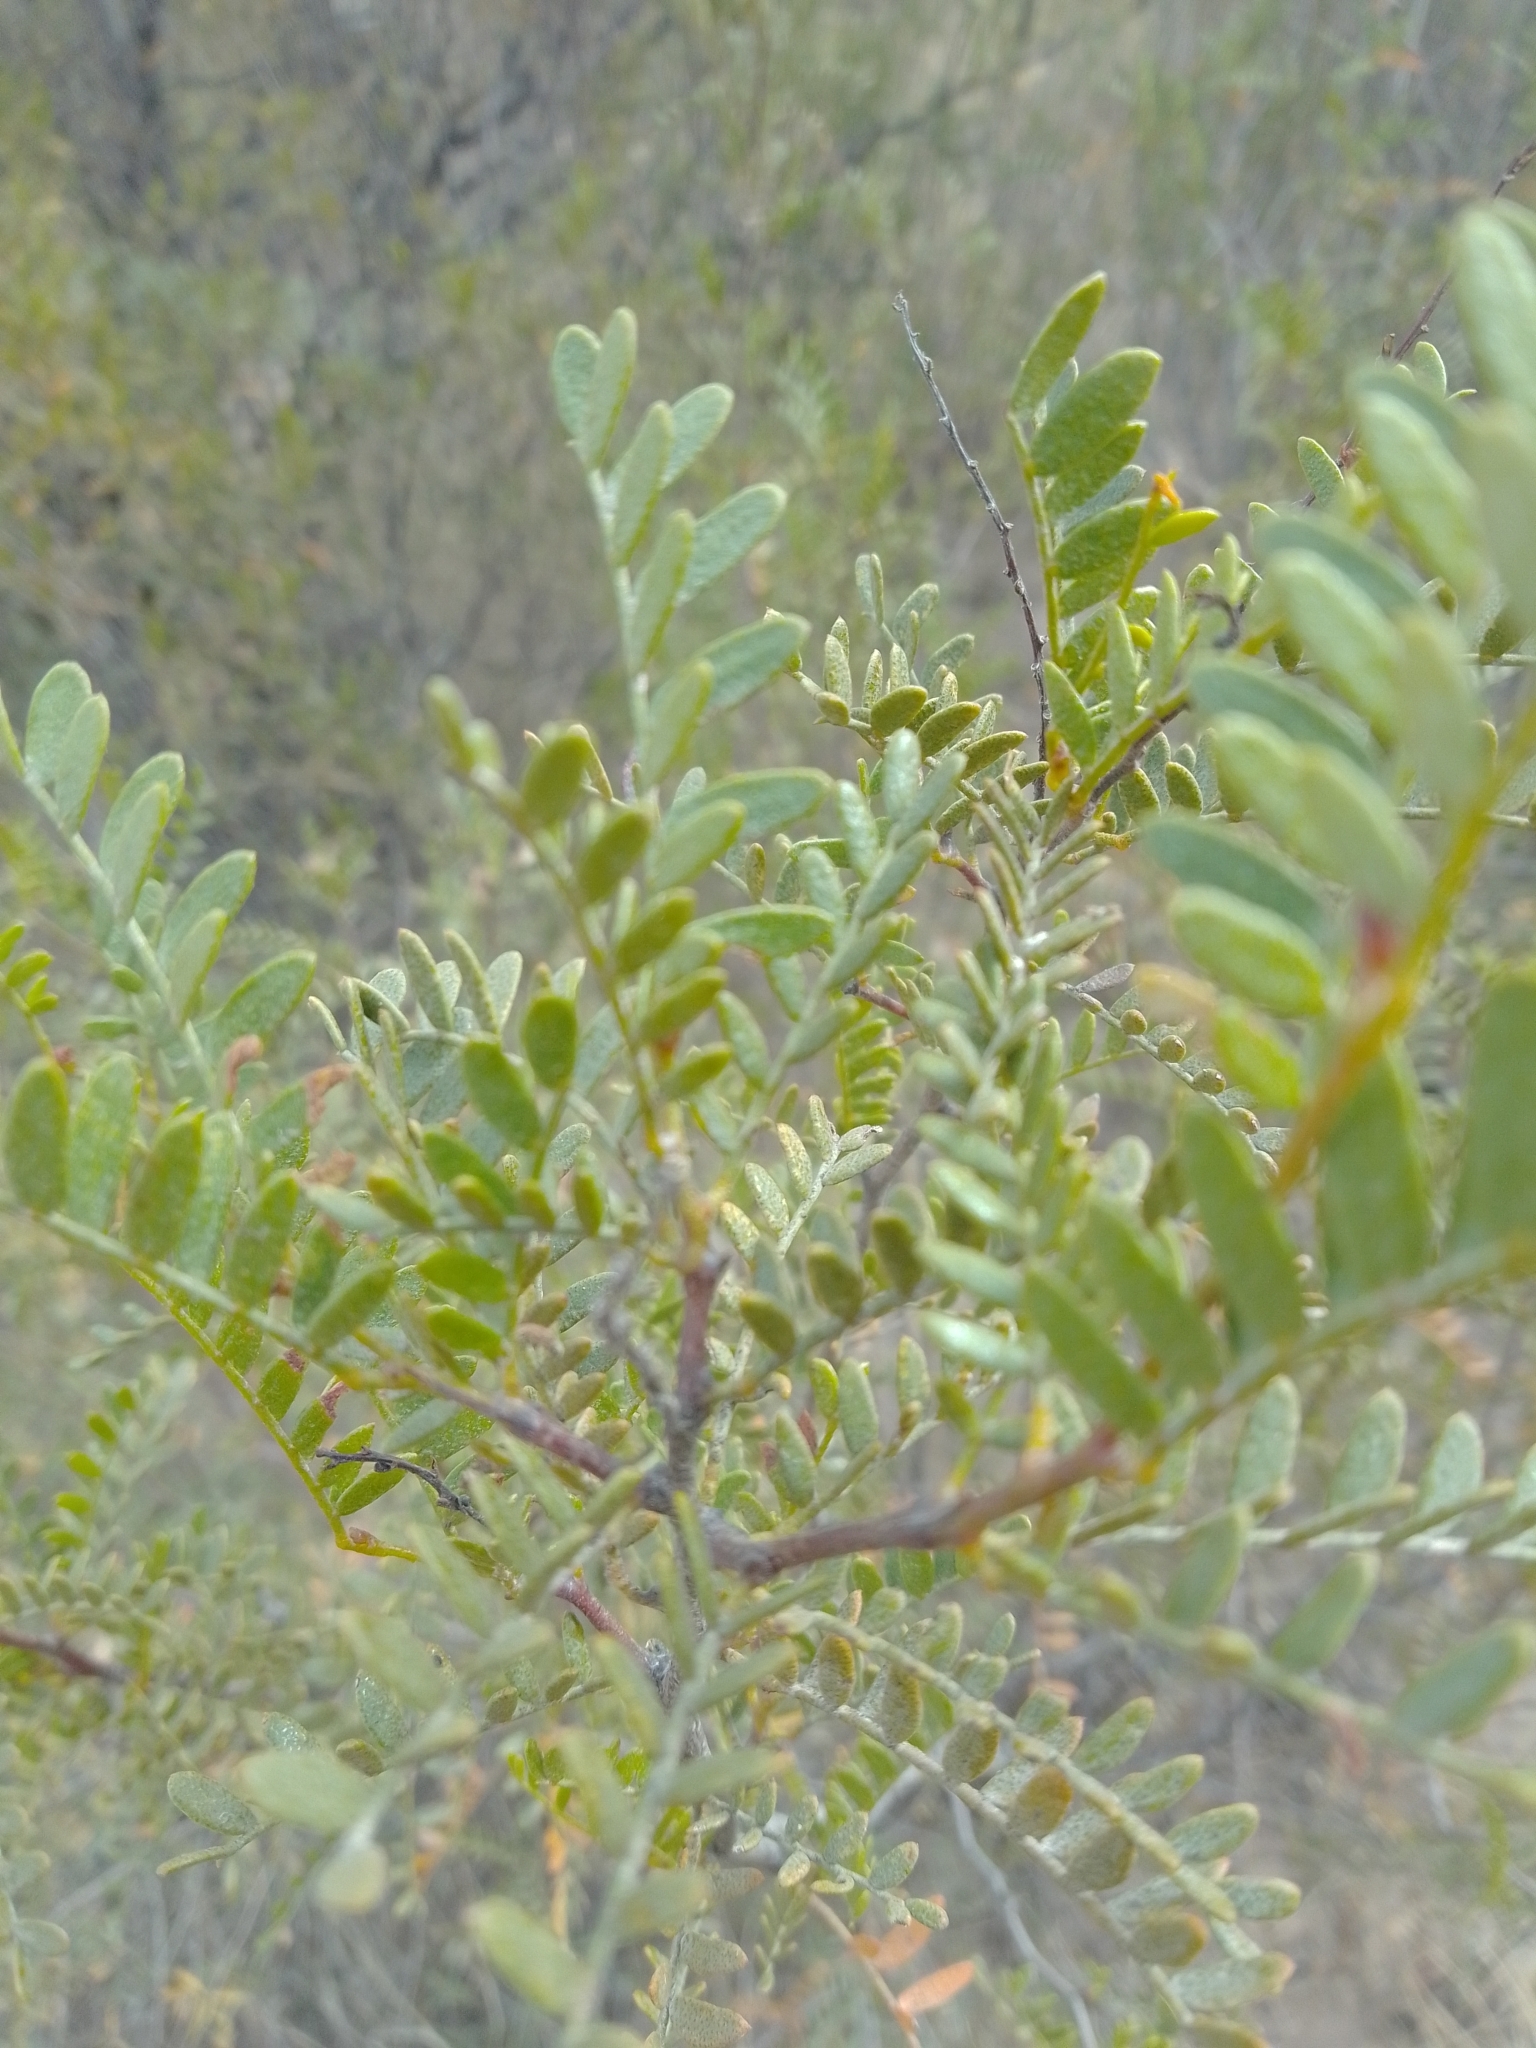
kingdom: Plantae
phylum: Tracheophyta
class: Magnoliopsida
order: Fabales
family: Fabaceae
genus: Zuccagnia
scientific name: Zuccagnia punctata
